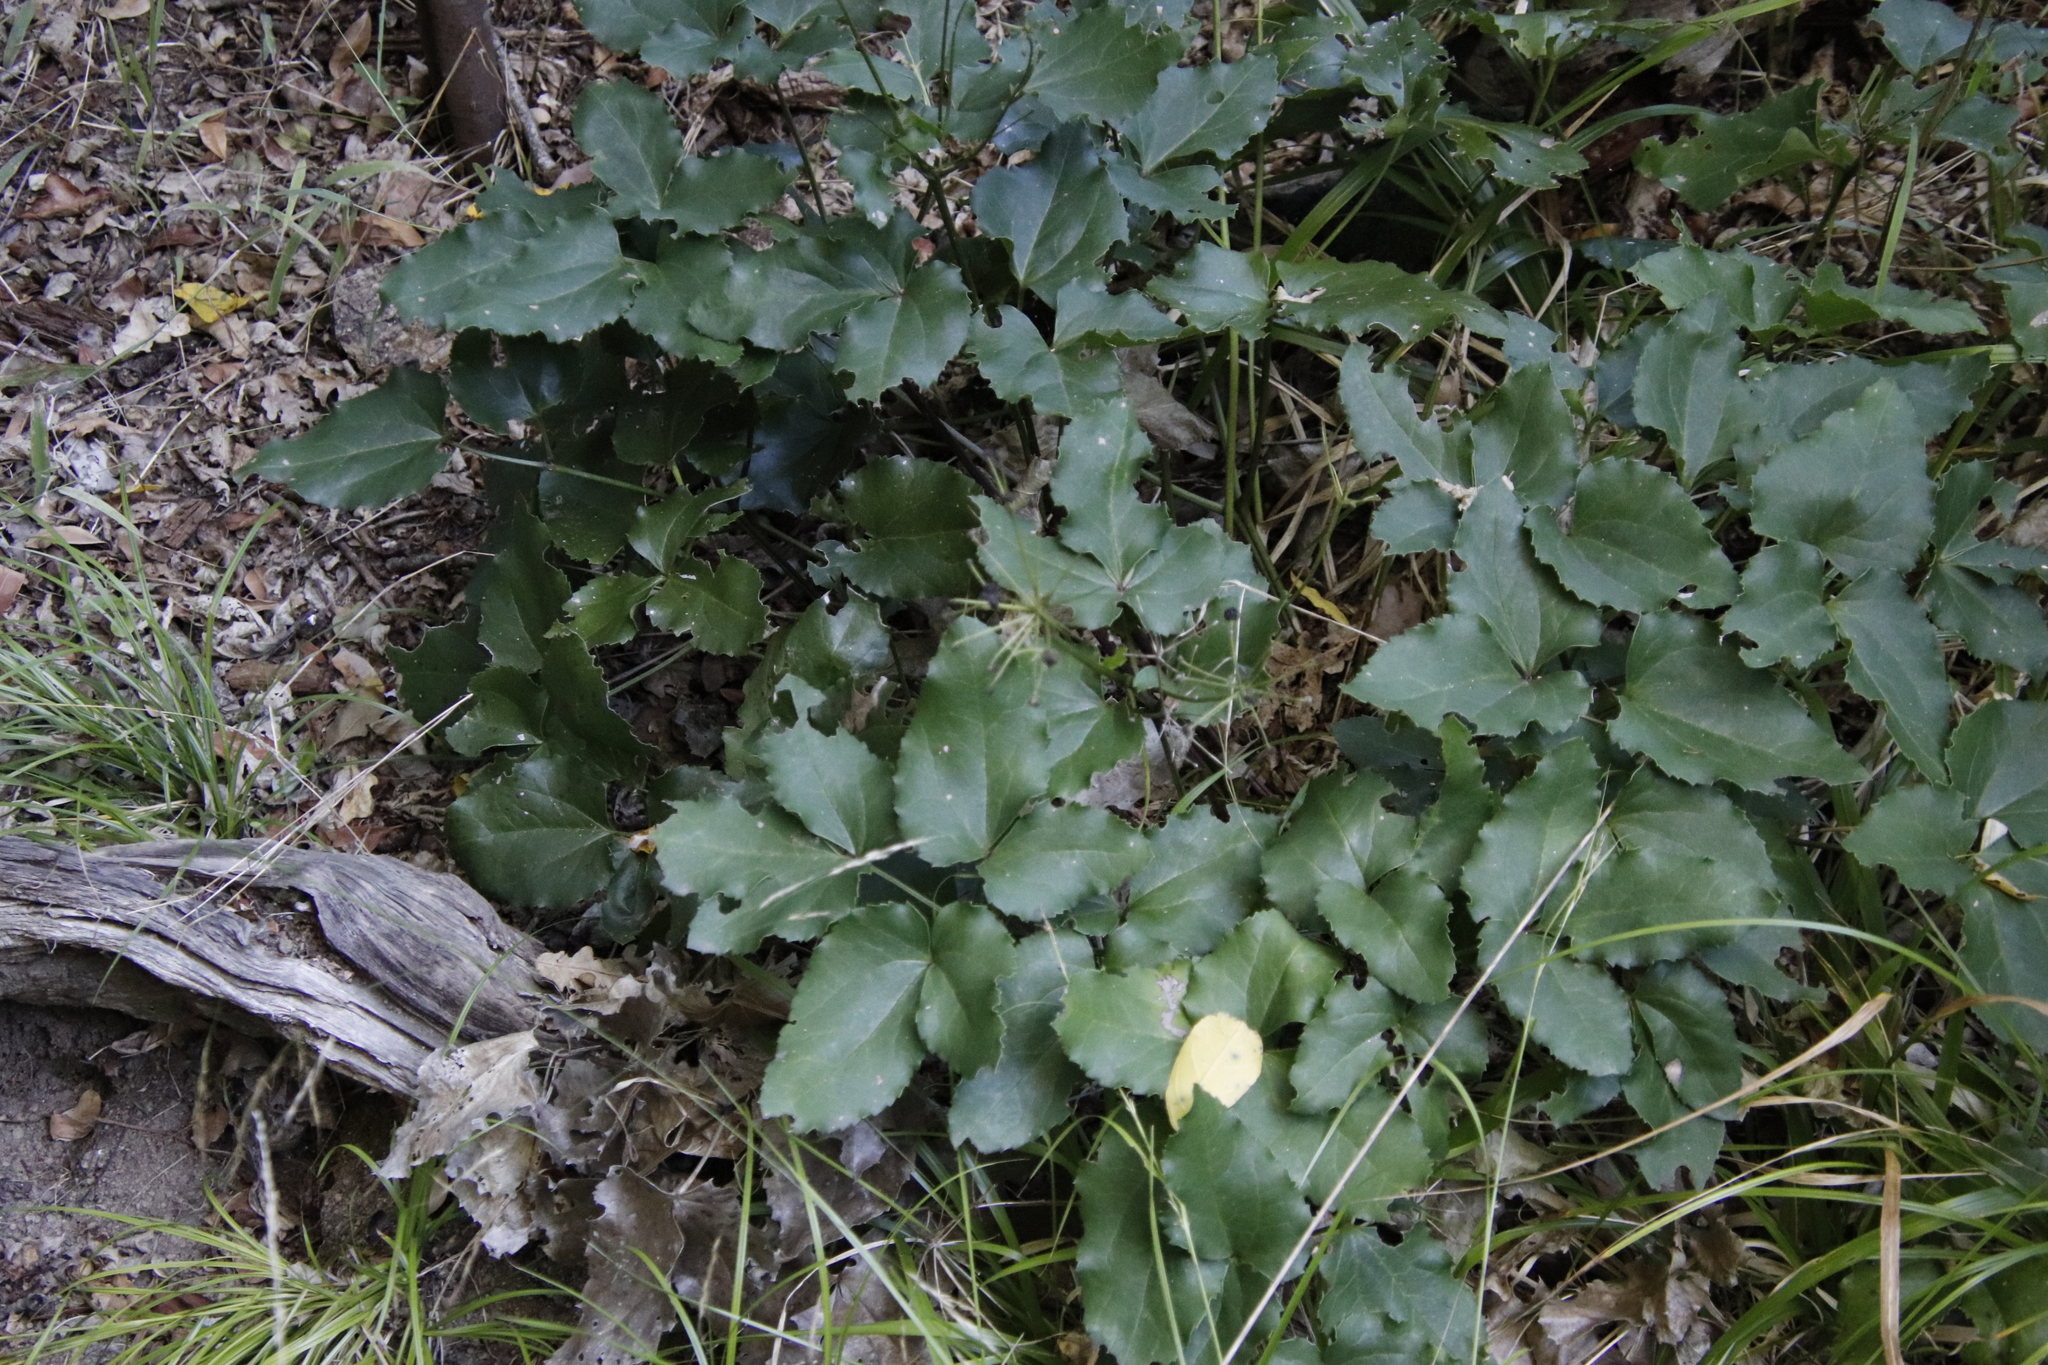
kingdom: Plantae
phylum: Tracheophyta
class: Magnoliopsida
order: Ranunculales
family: Ranunculaceae
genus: Knowltonia
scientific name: Knowltonia vesicatoria
